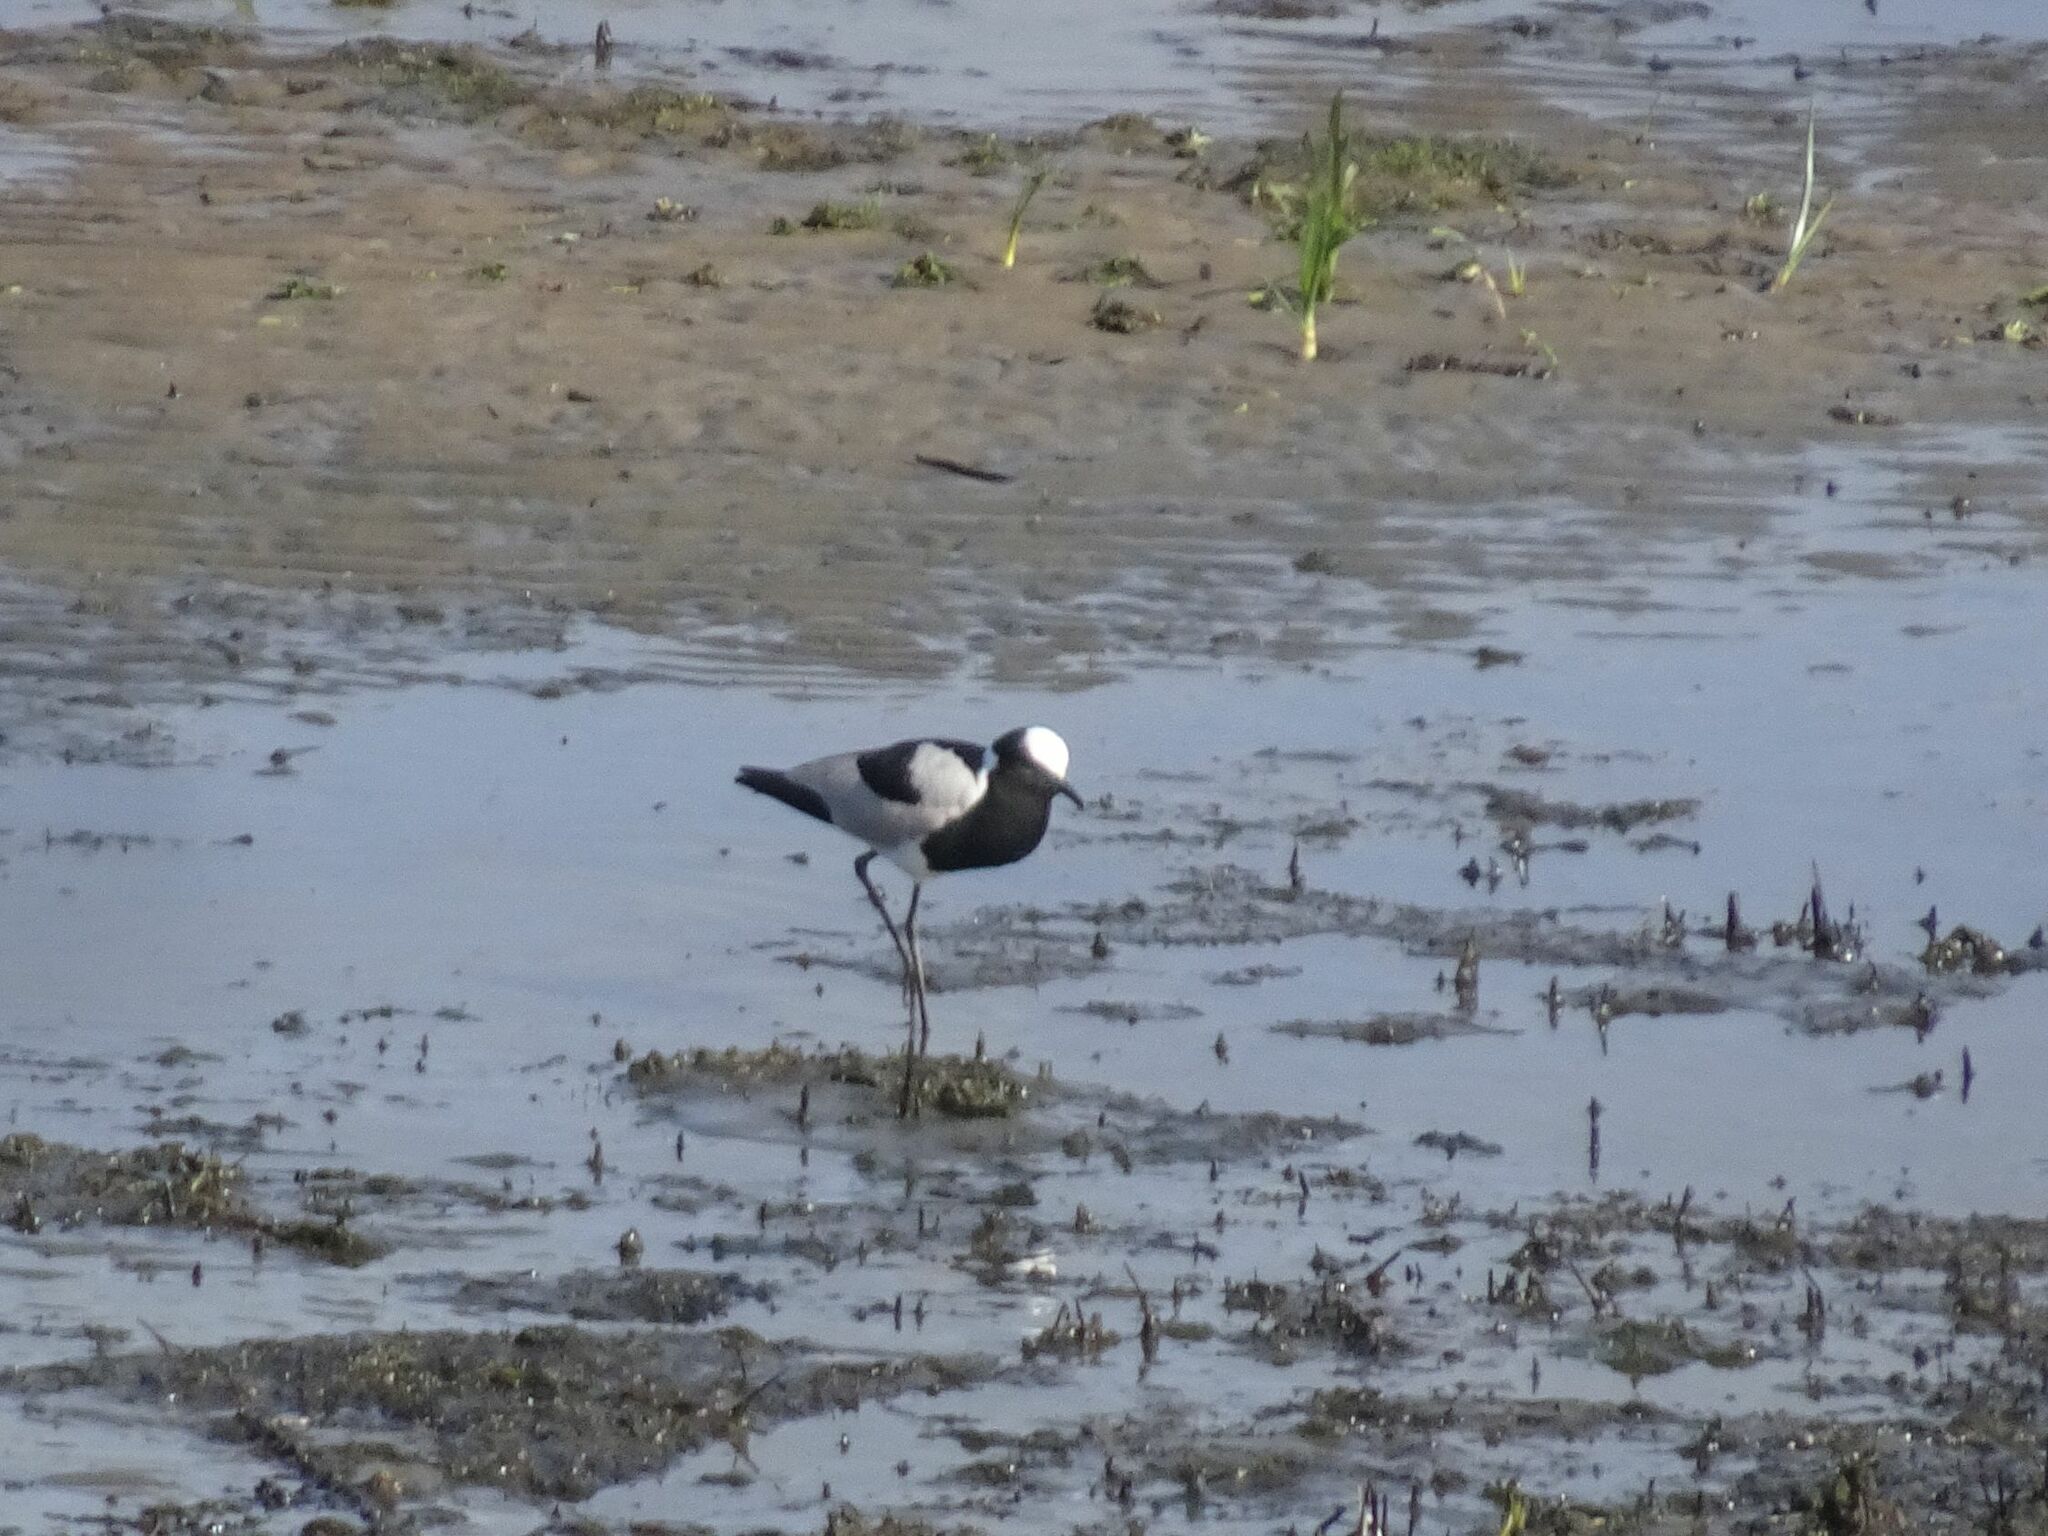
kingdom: Animalia
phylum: Chordata
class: Aves
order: Charadriiformes
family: Charadriidae
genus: Vanellus
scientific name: Vanellus armatus
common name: Blacksmith lapwing
